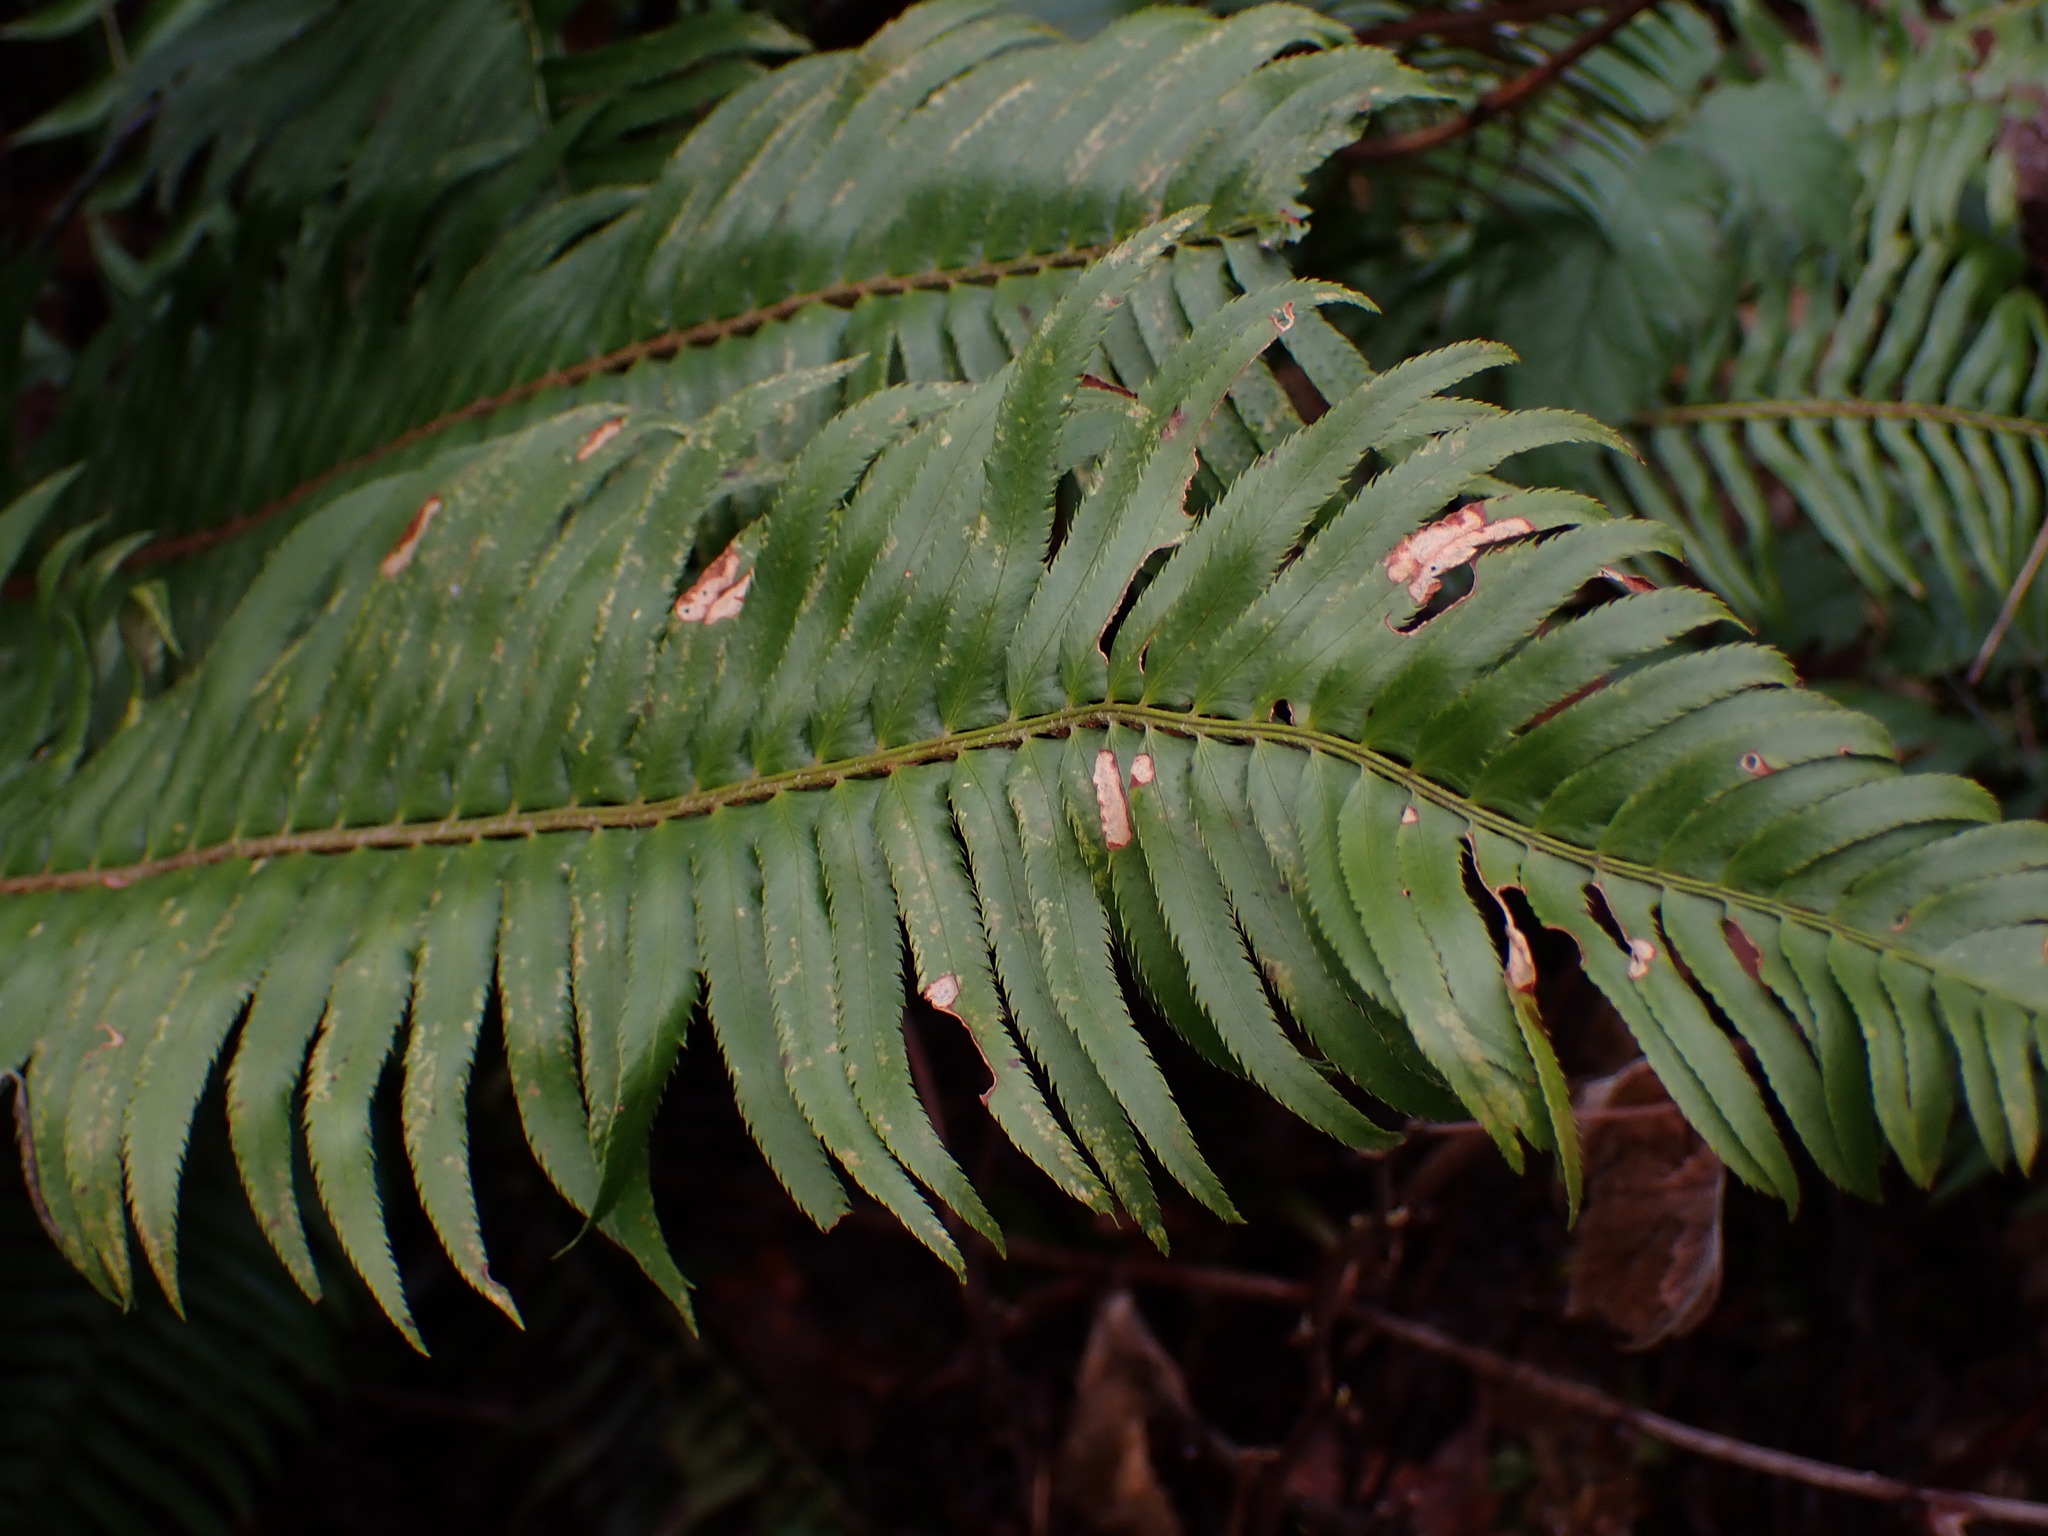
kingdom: Plantae
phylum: Tracheophyta
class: Polypodiopsida
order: Polypodiales
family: Dryopteridaceae
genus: Polystichum
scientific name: Polystichum munitum
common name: Western sword-fern
